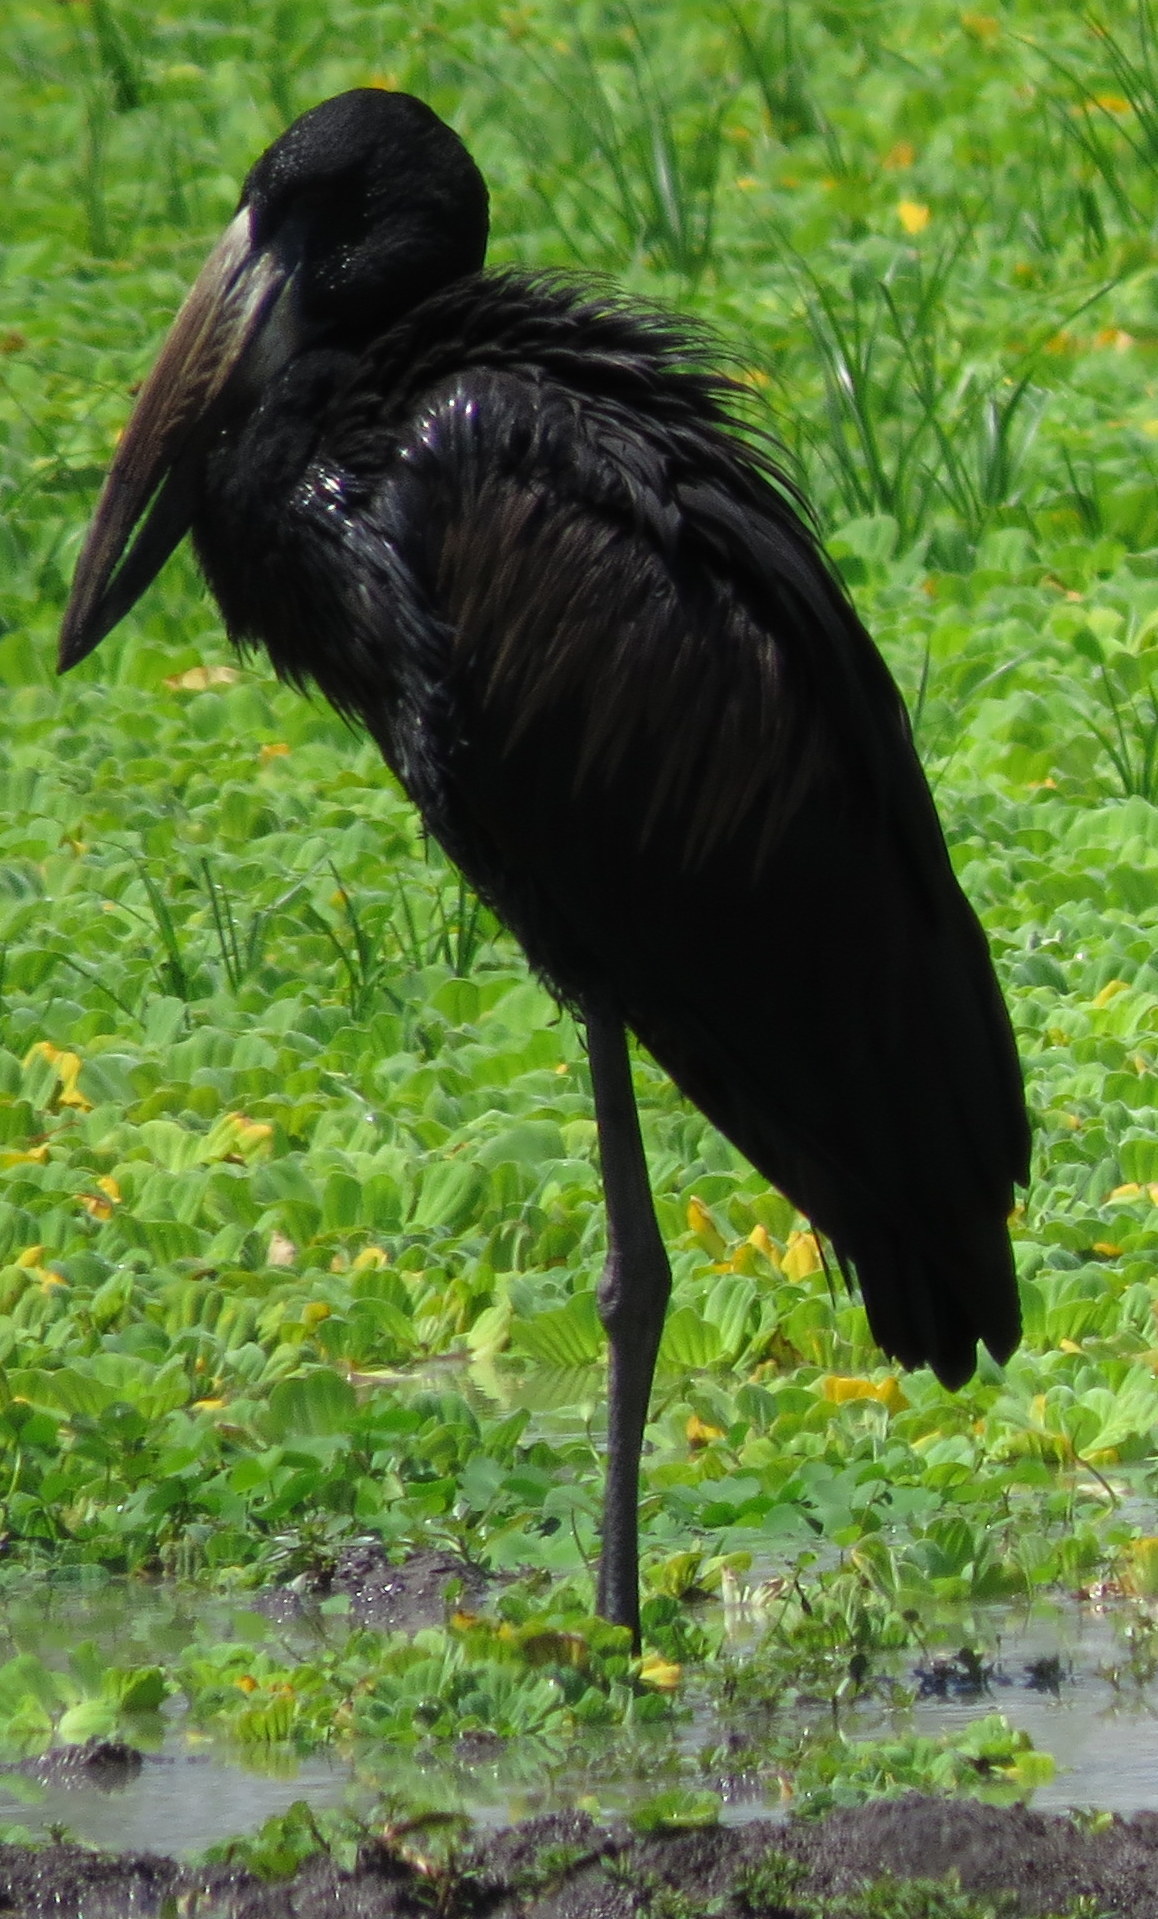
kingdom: Animalia
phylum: Chordata
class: Aves
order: Ciconiiformes
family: Ciconiidae
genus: Anastomus
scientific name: Anastomus lamelligerus
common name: African openbill
